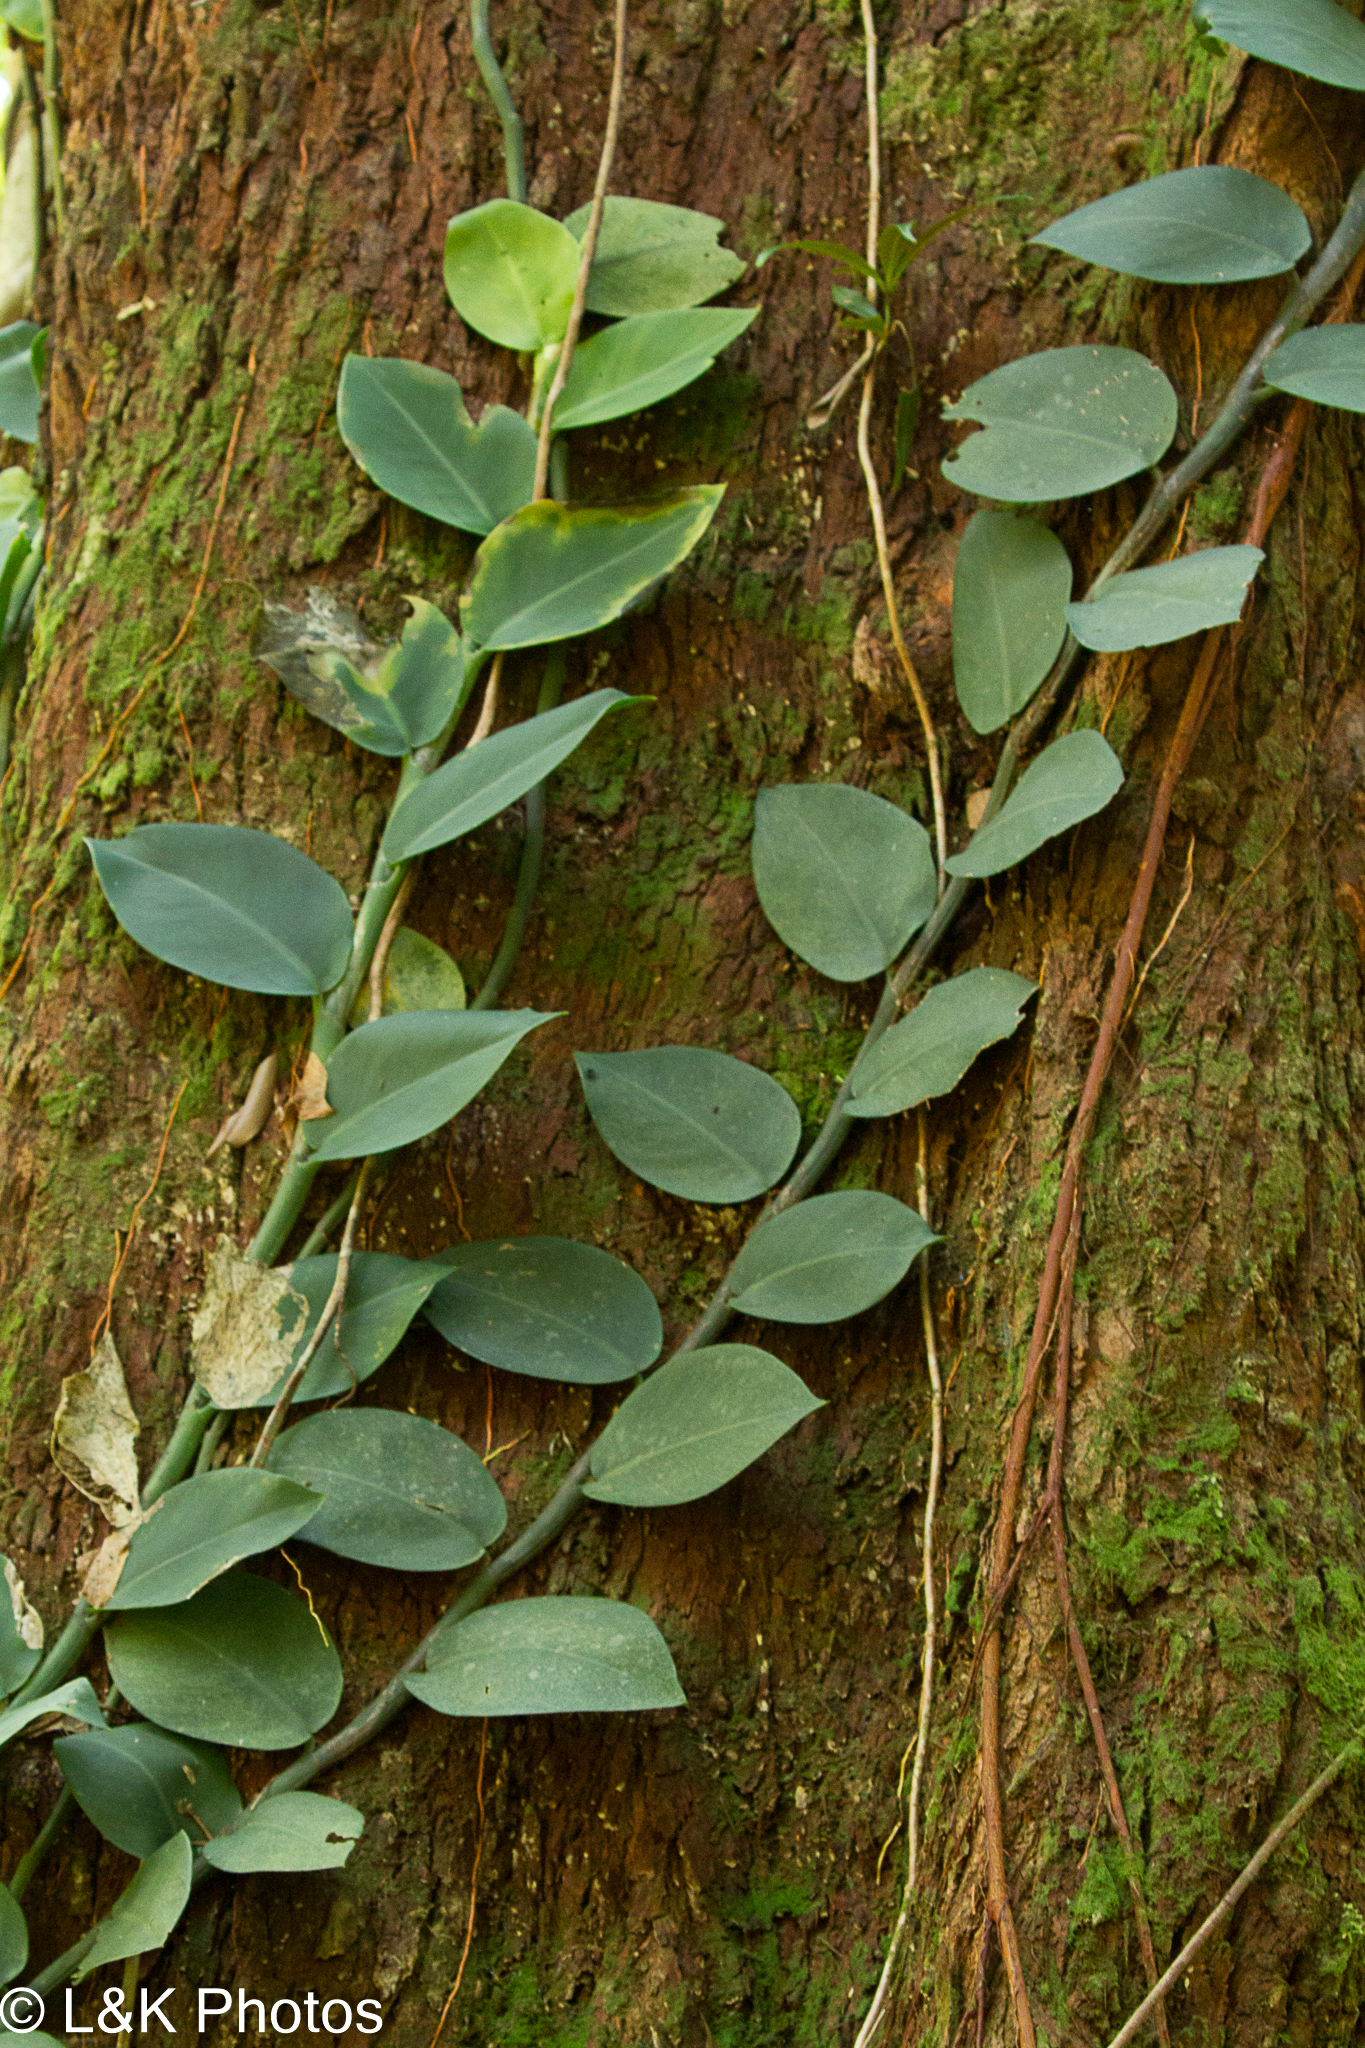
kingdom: Plantae
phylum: Tracheophyta
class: Liliopsida
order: Alismatales
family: Araceae
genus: Rhaphidophora
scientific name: Rhaphidophora hayi
